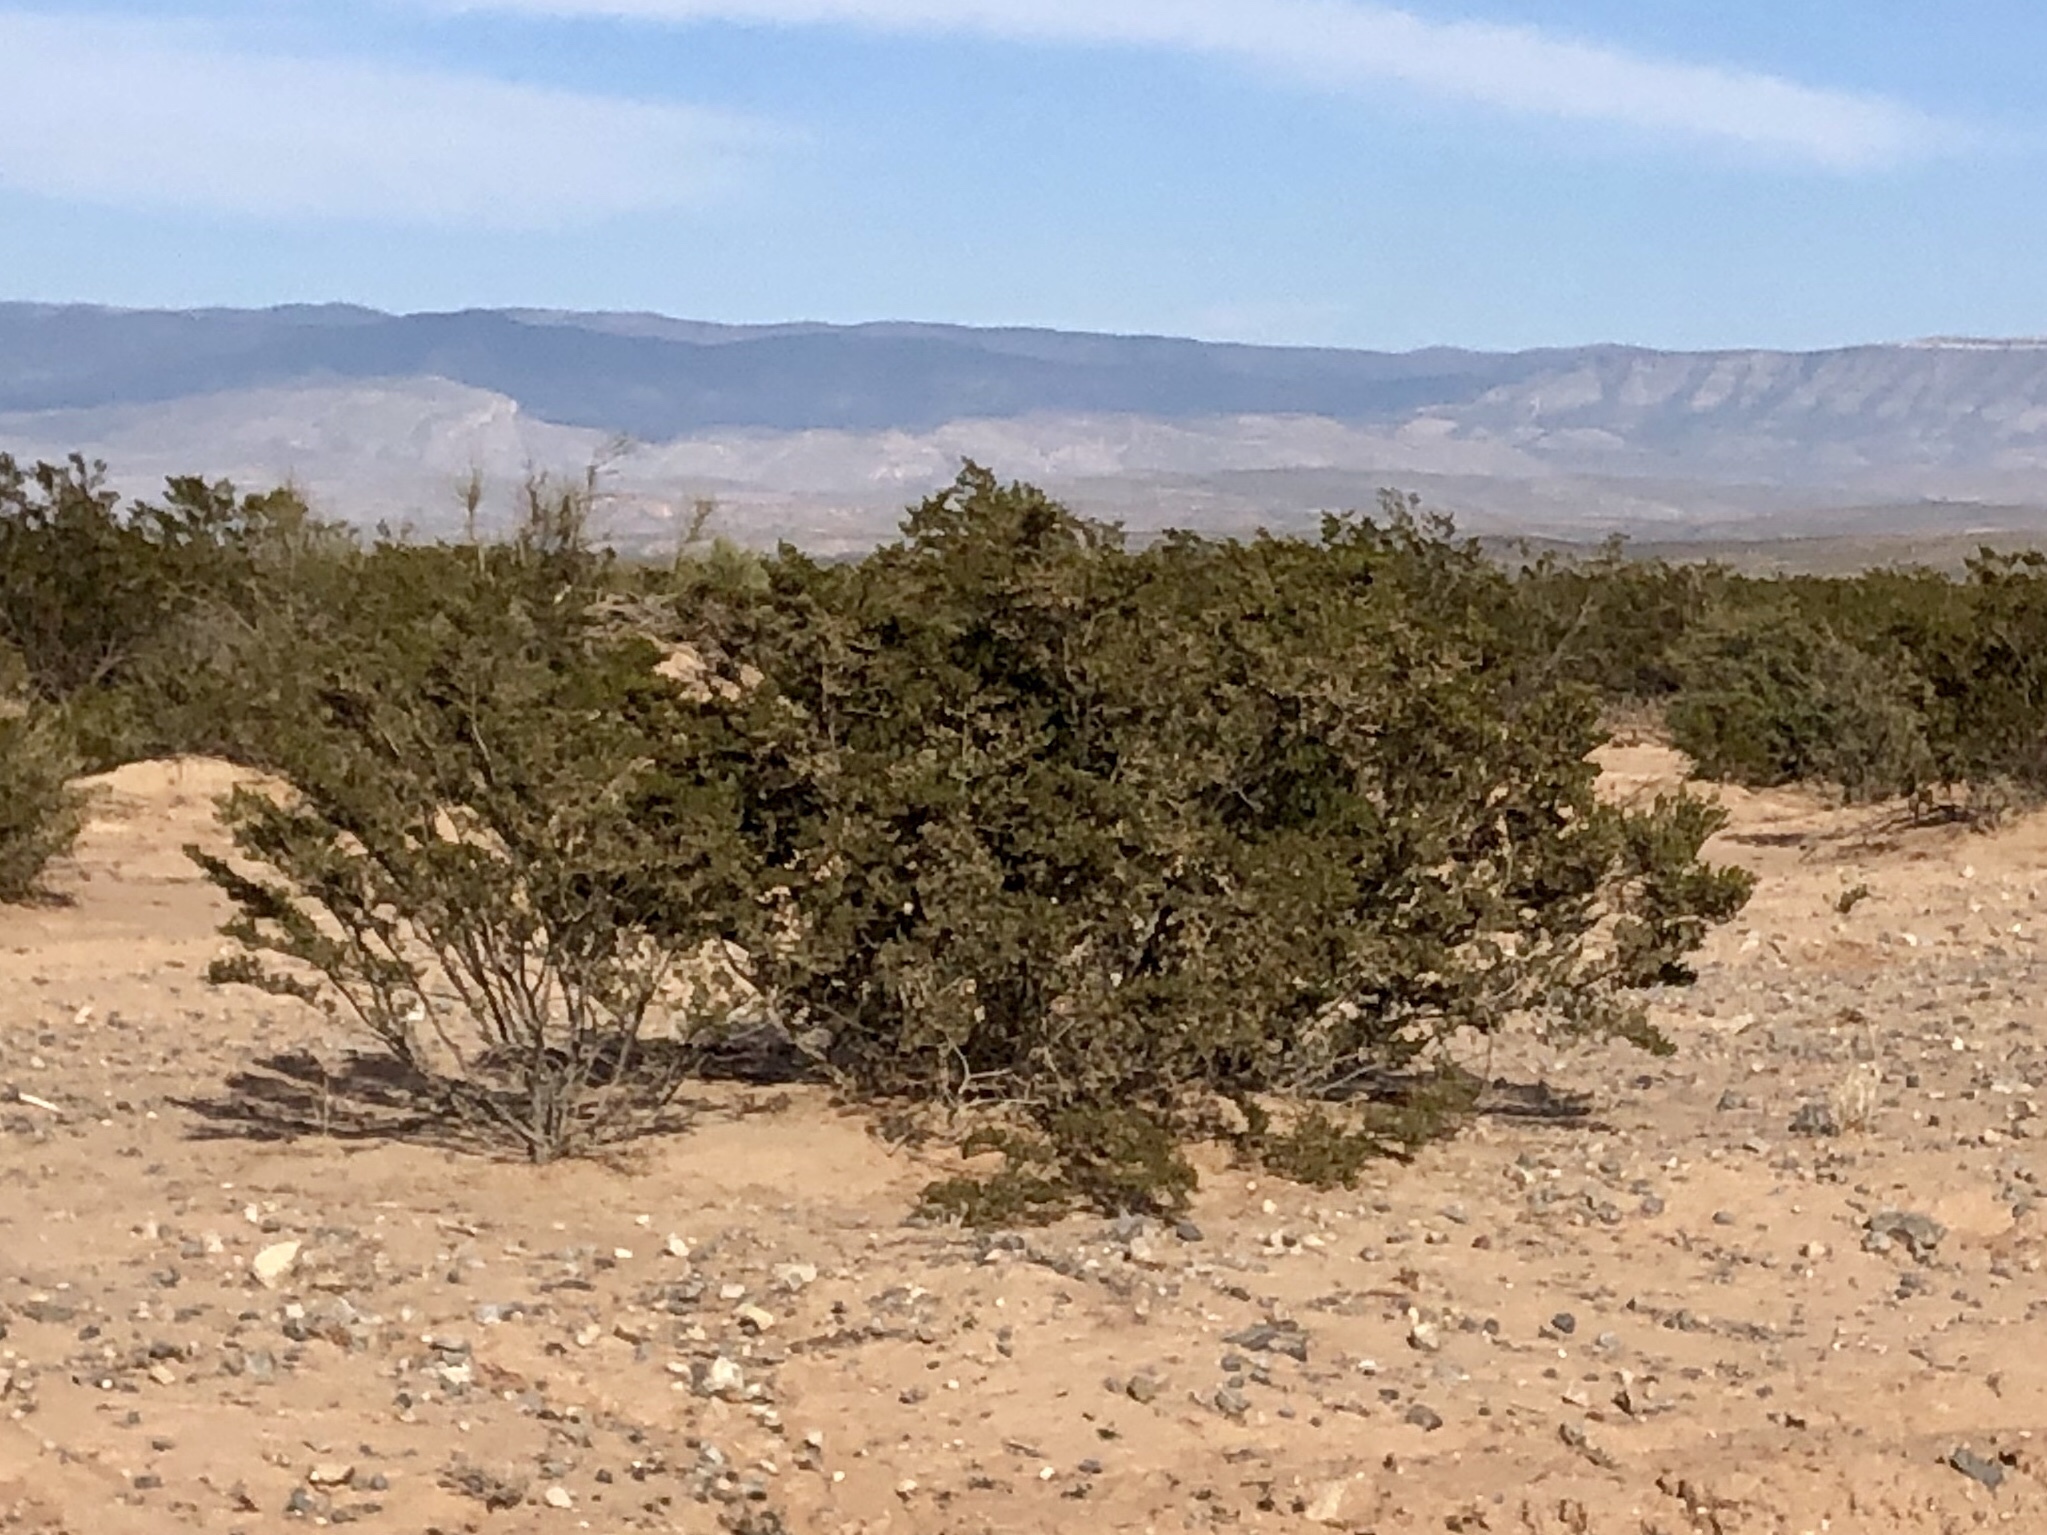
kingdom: Plantae
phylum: Tracheophyta
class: Magnoliopsida
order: Zygophyllales
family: Zygophyllaceae
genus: Larrea
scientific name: Larrea tridentata
